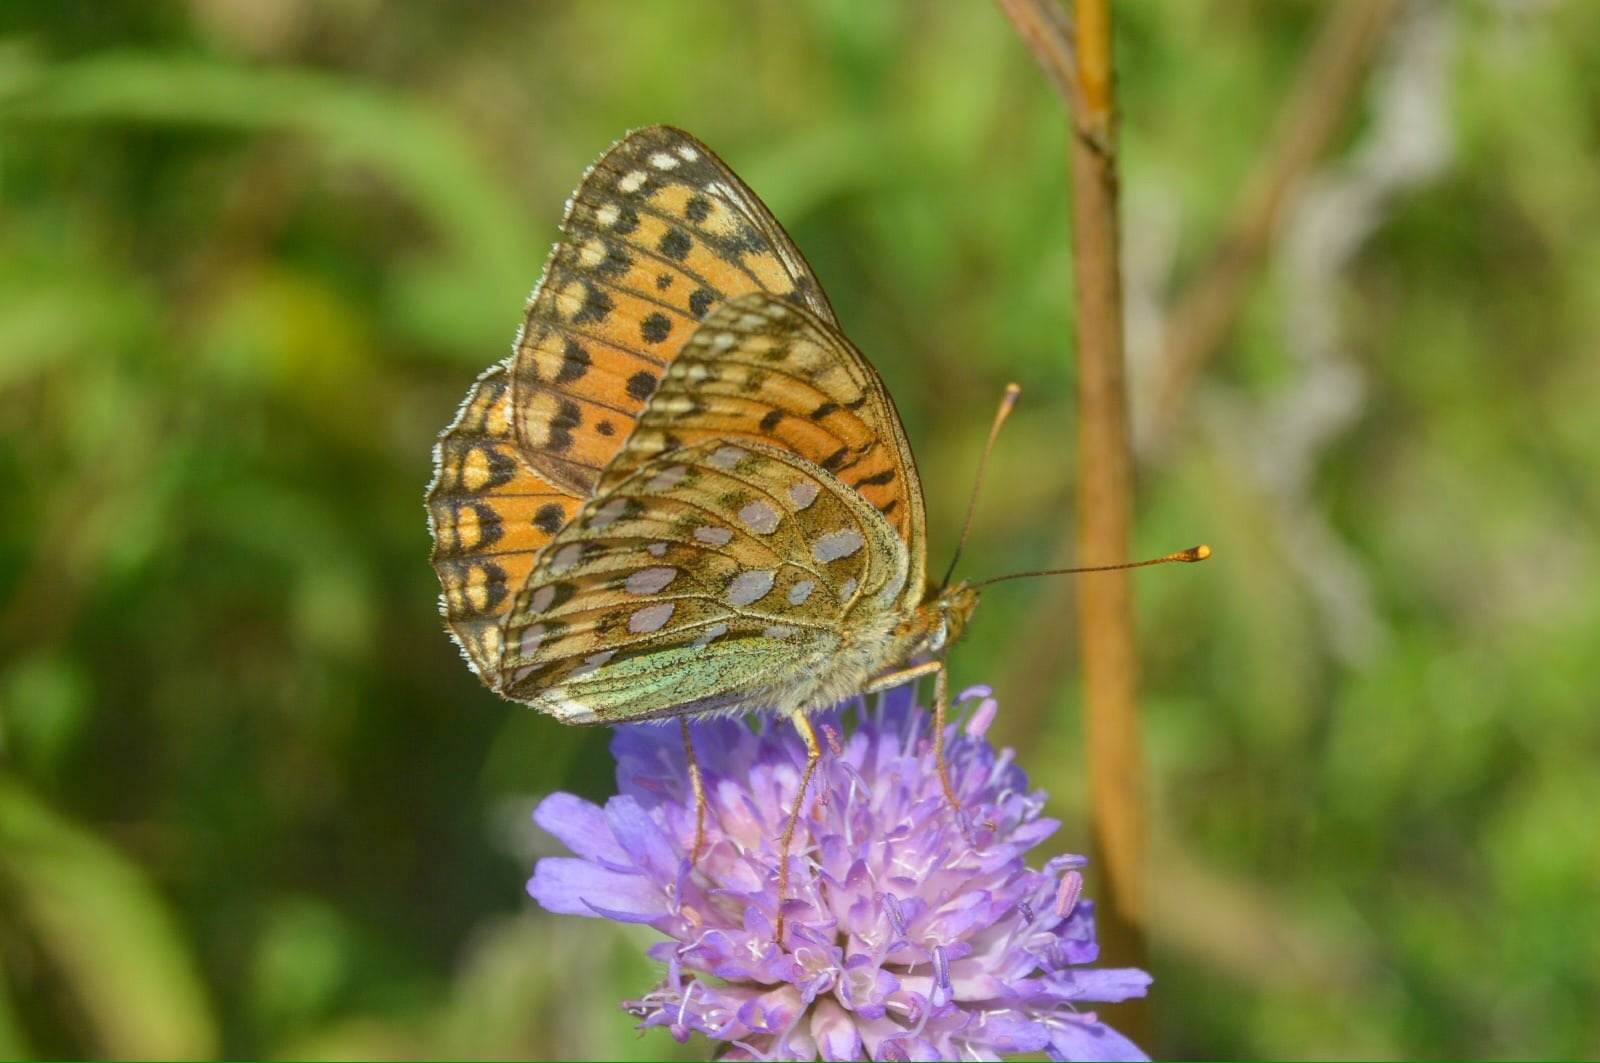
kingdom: Animalia
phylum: Arthropoda
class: Insecta
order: Lepidoptera
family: Nymphalidae
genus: Speyeria
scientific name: Speyeria aglaja
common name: Dark green fritillary
